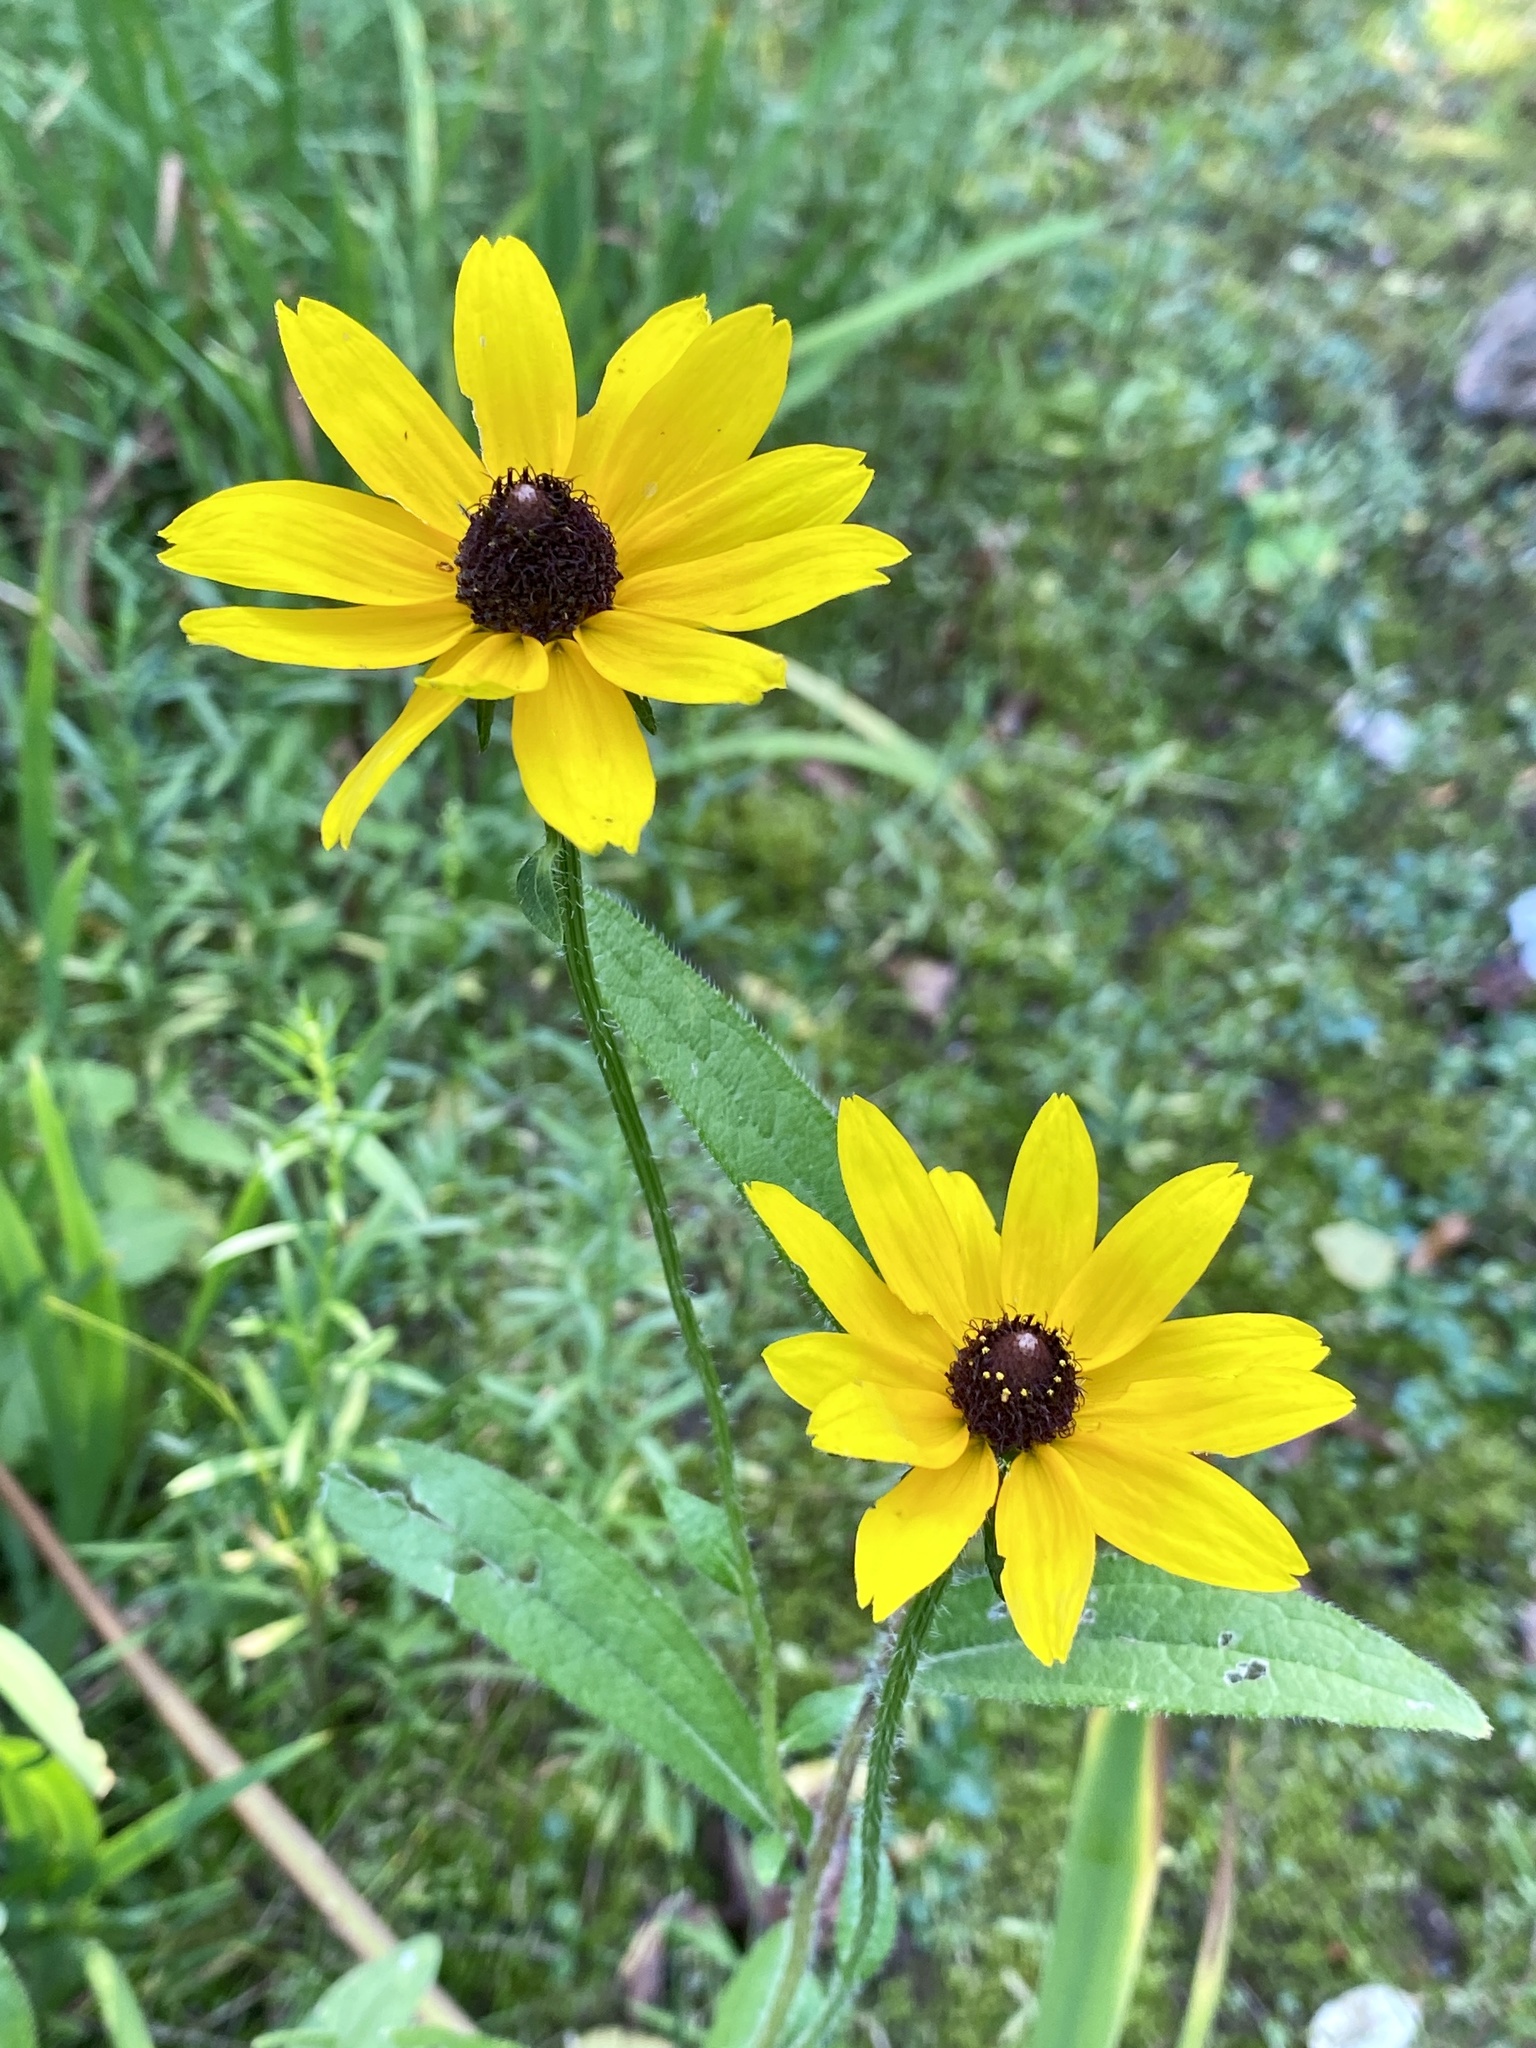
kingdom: Plantae
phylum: Tracheophyta
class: Magnoliopsida
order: Asterales
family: Asteraceae
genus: Rudbeckia
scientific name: Rudbeckia hirta
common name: Black-eyed-susan
